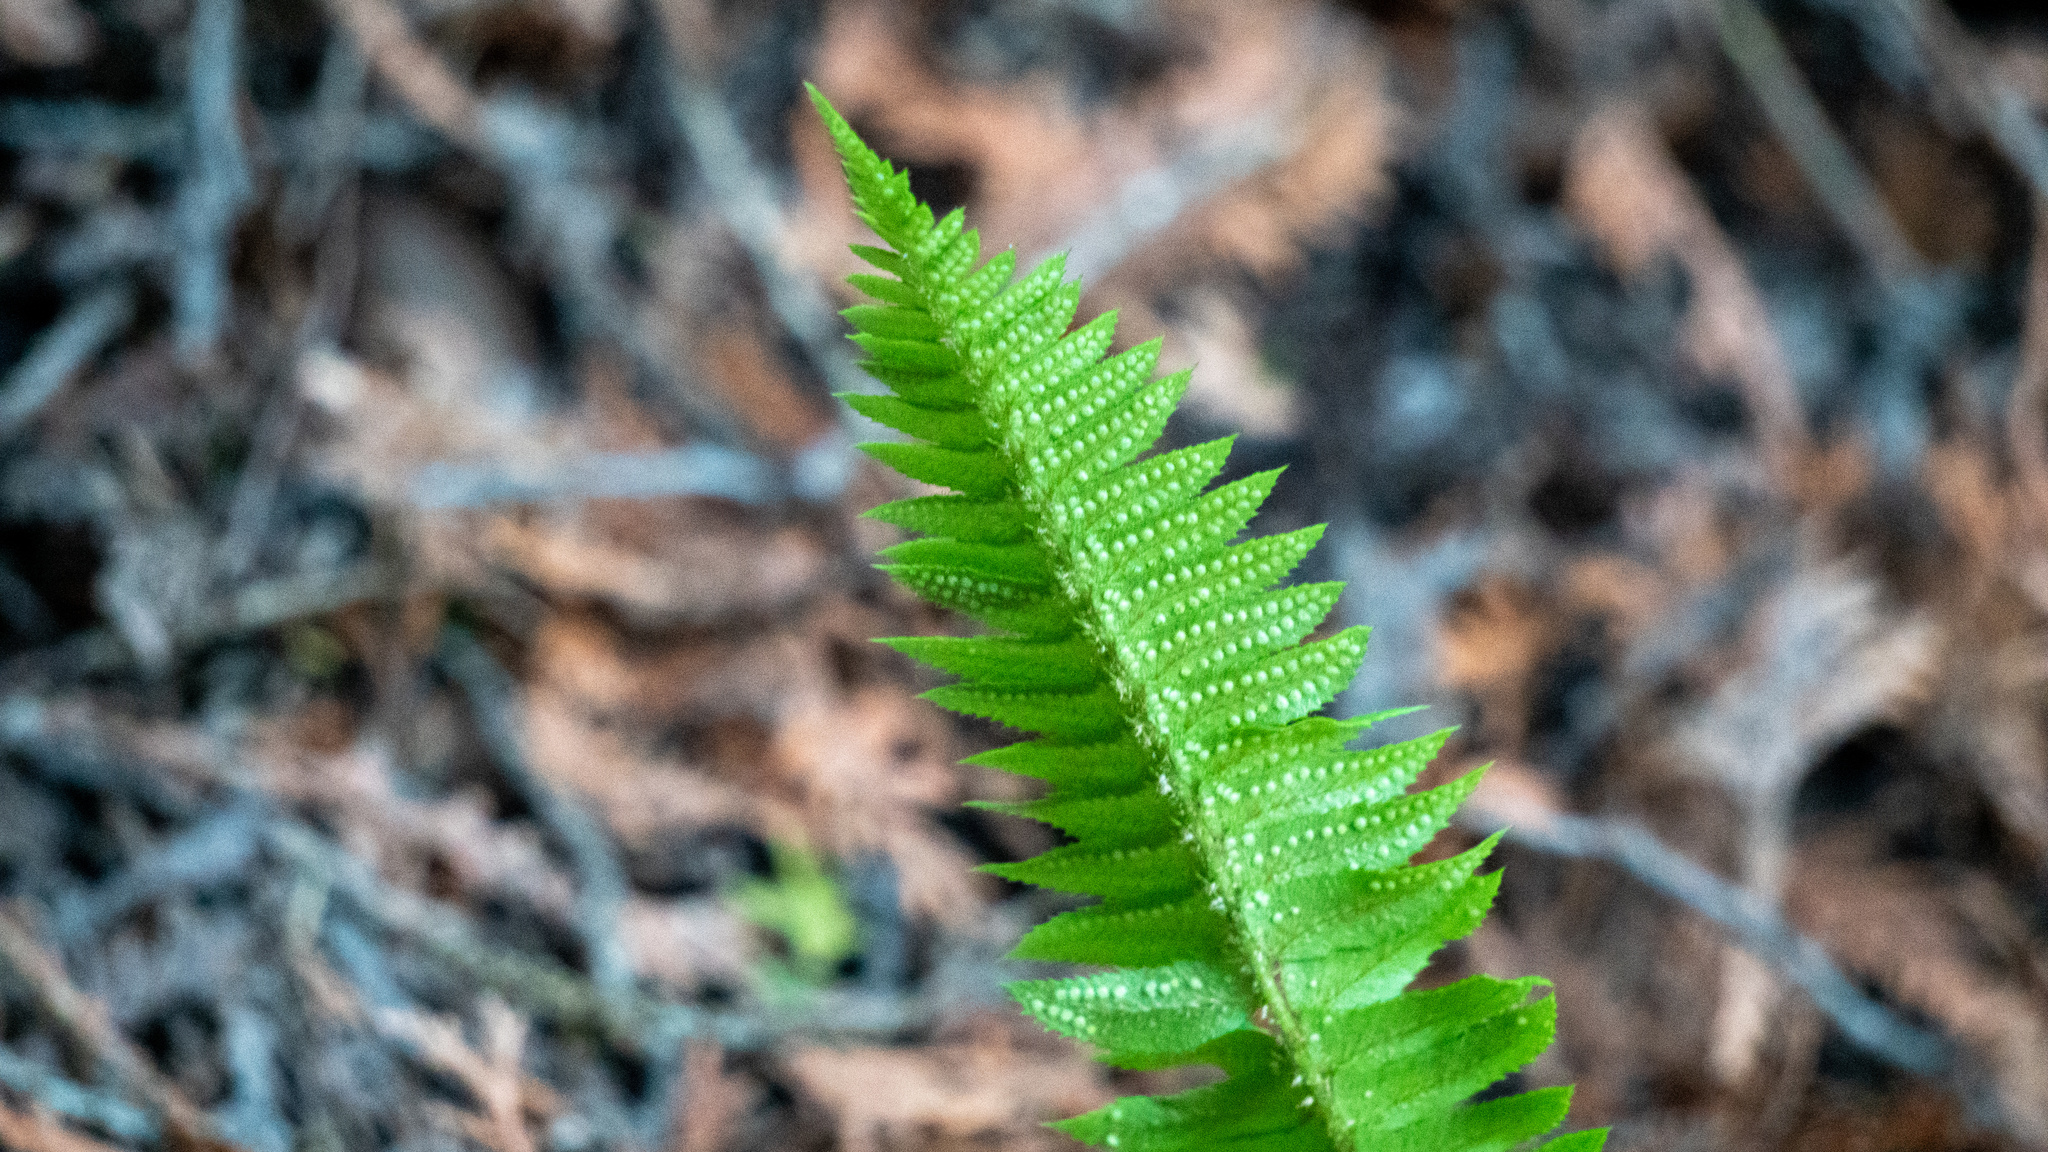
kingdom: Plantae
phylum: Tracheophyta
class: Polypodiopsida
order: Polypodiales
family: Dryopteridaceae
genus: Polystichum
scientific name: Polystichum lonchitis
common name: Holly fern
